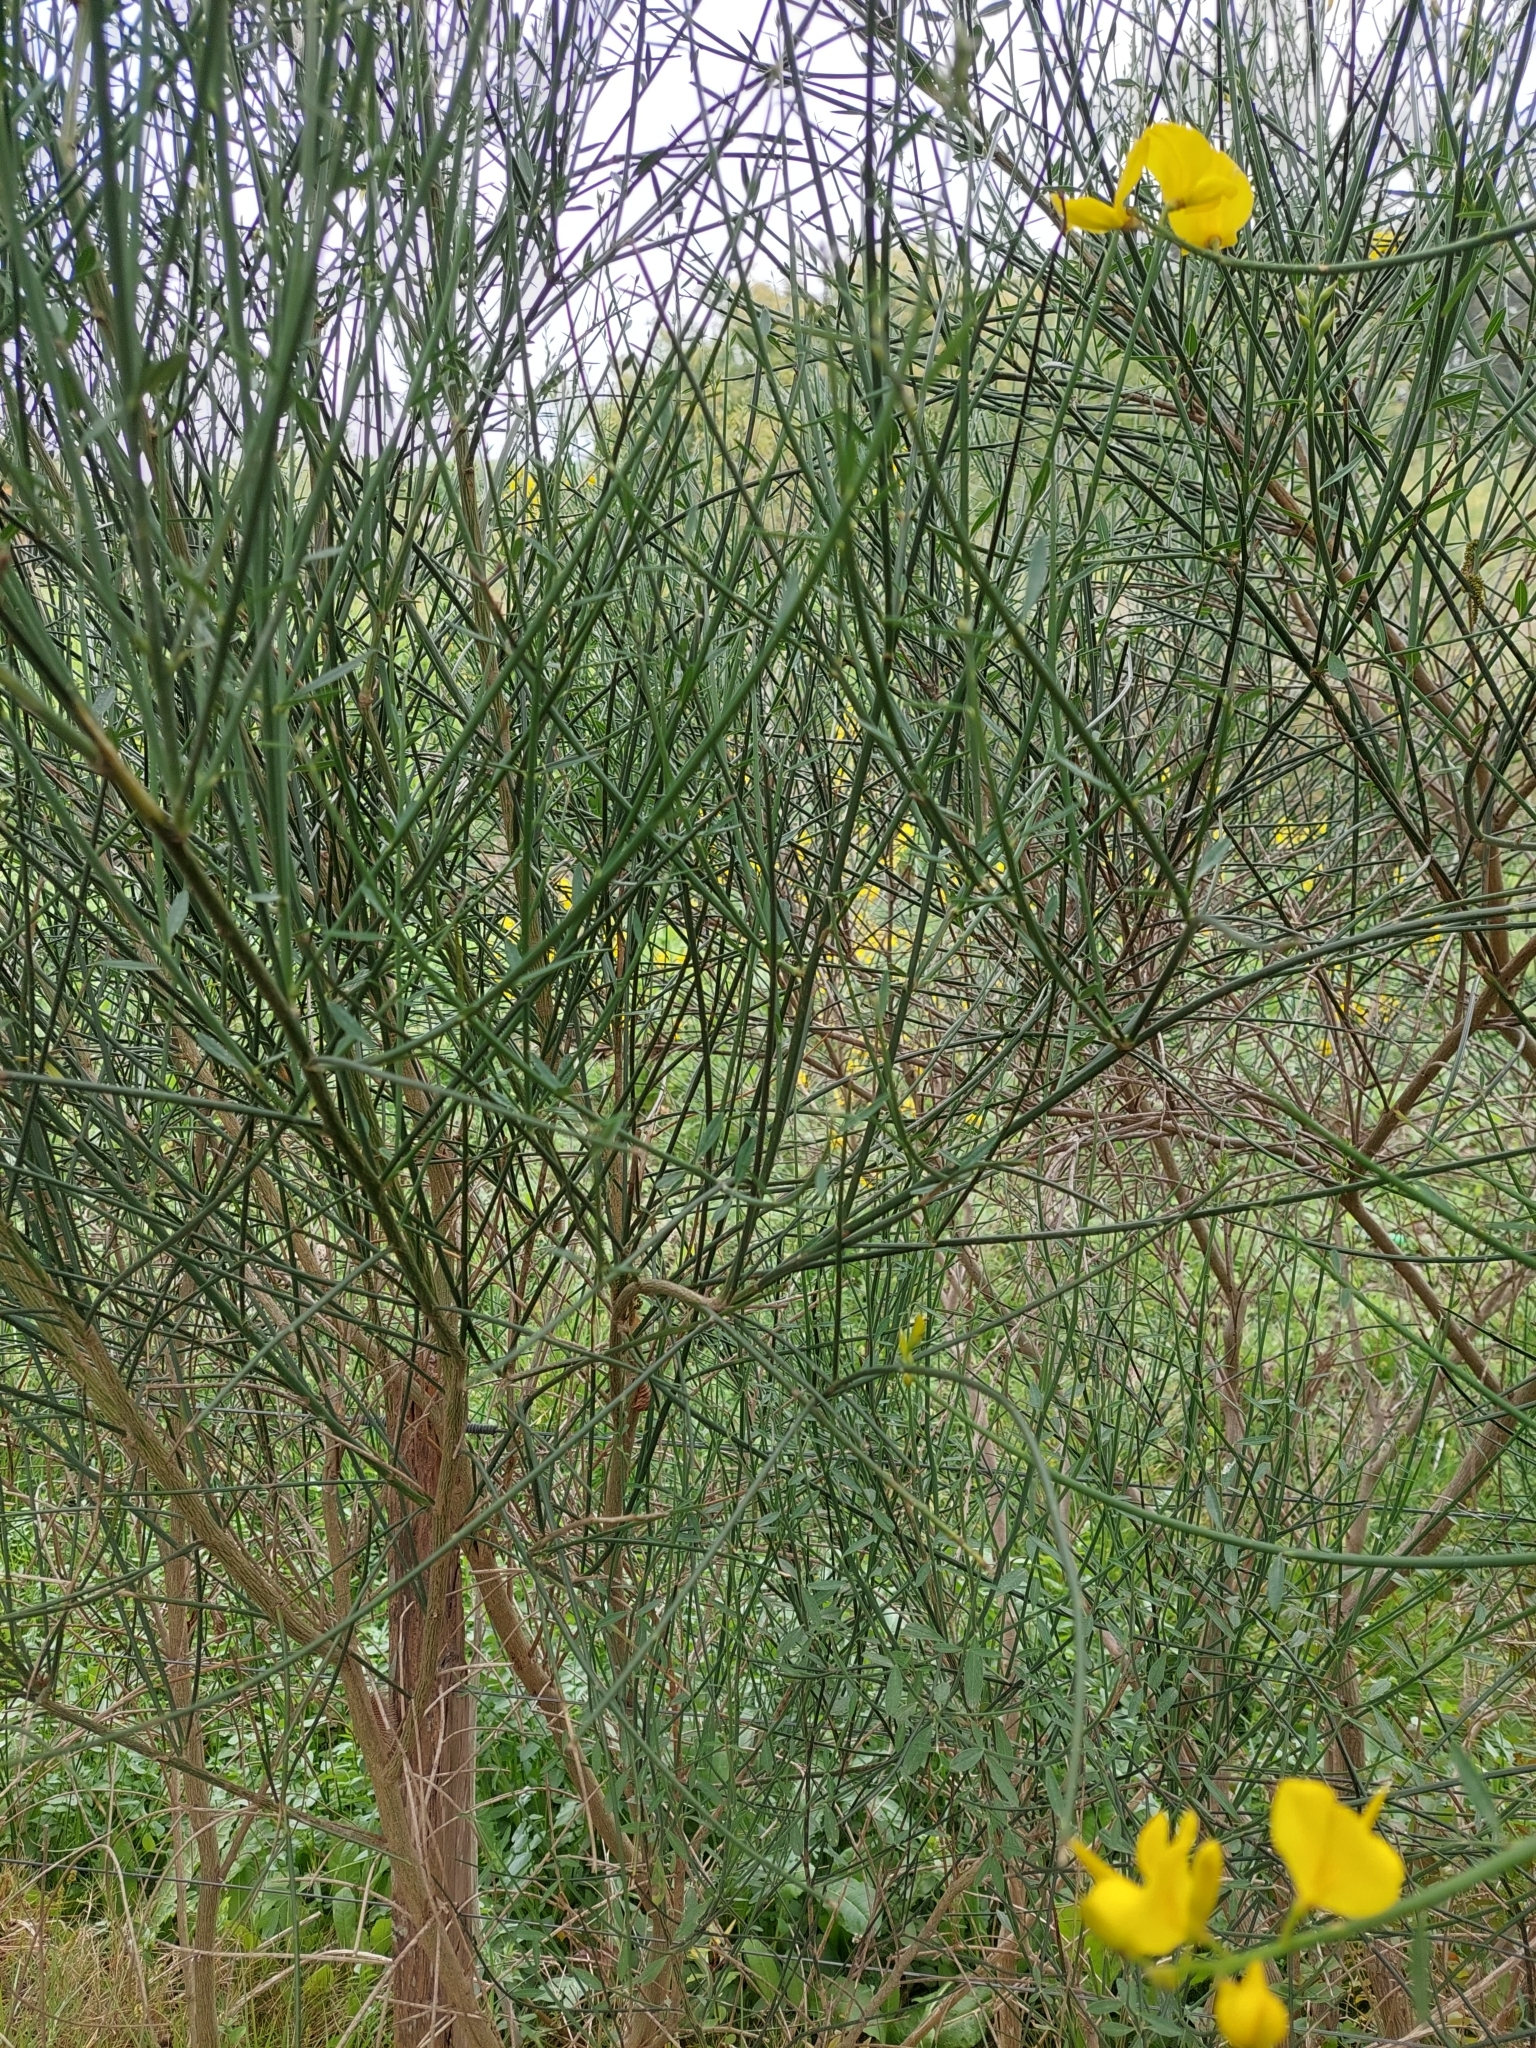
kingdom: Plantae
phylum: Tracheophyta
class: Magnoliopsida
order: Fabales
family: Fabaceae
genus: Spartium
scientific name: Spartium junceum
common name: Spanish broom
